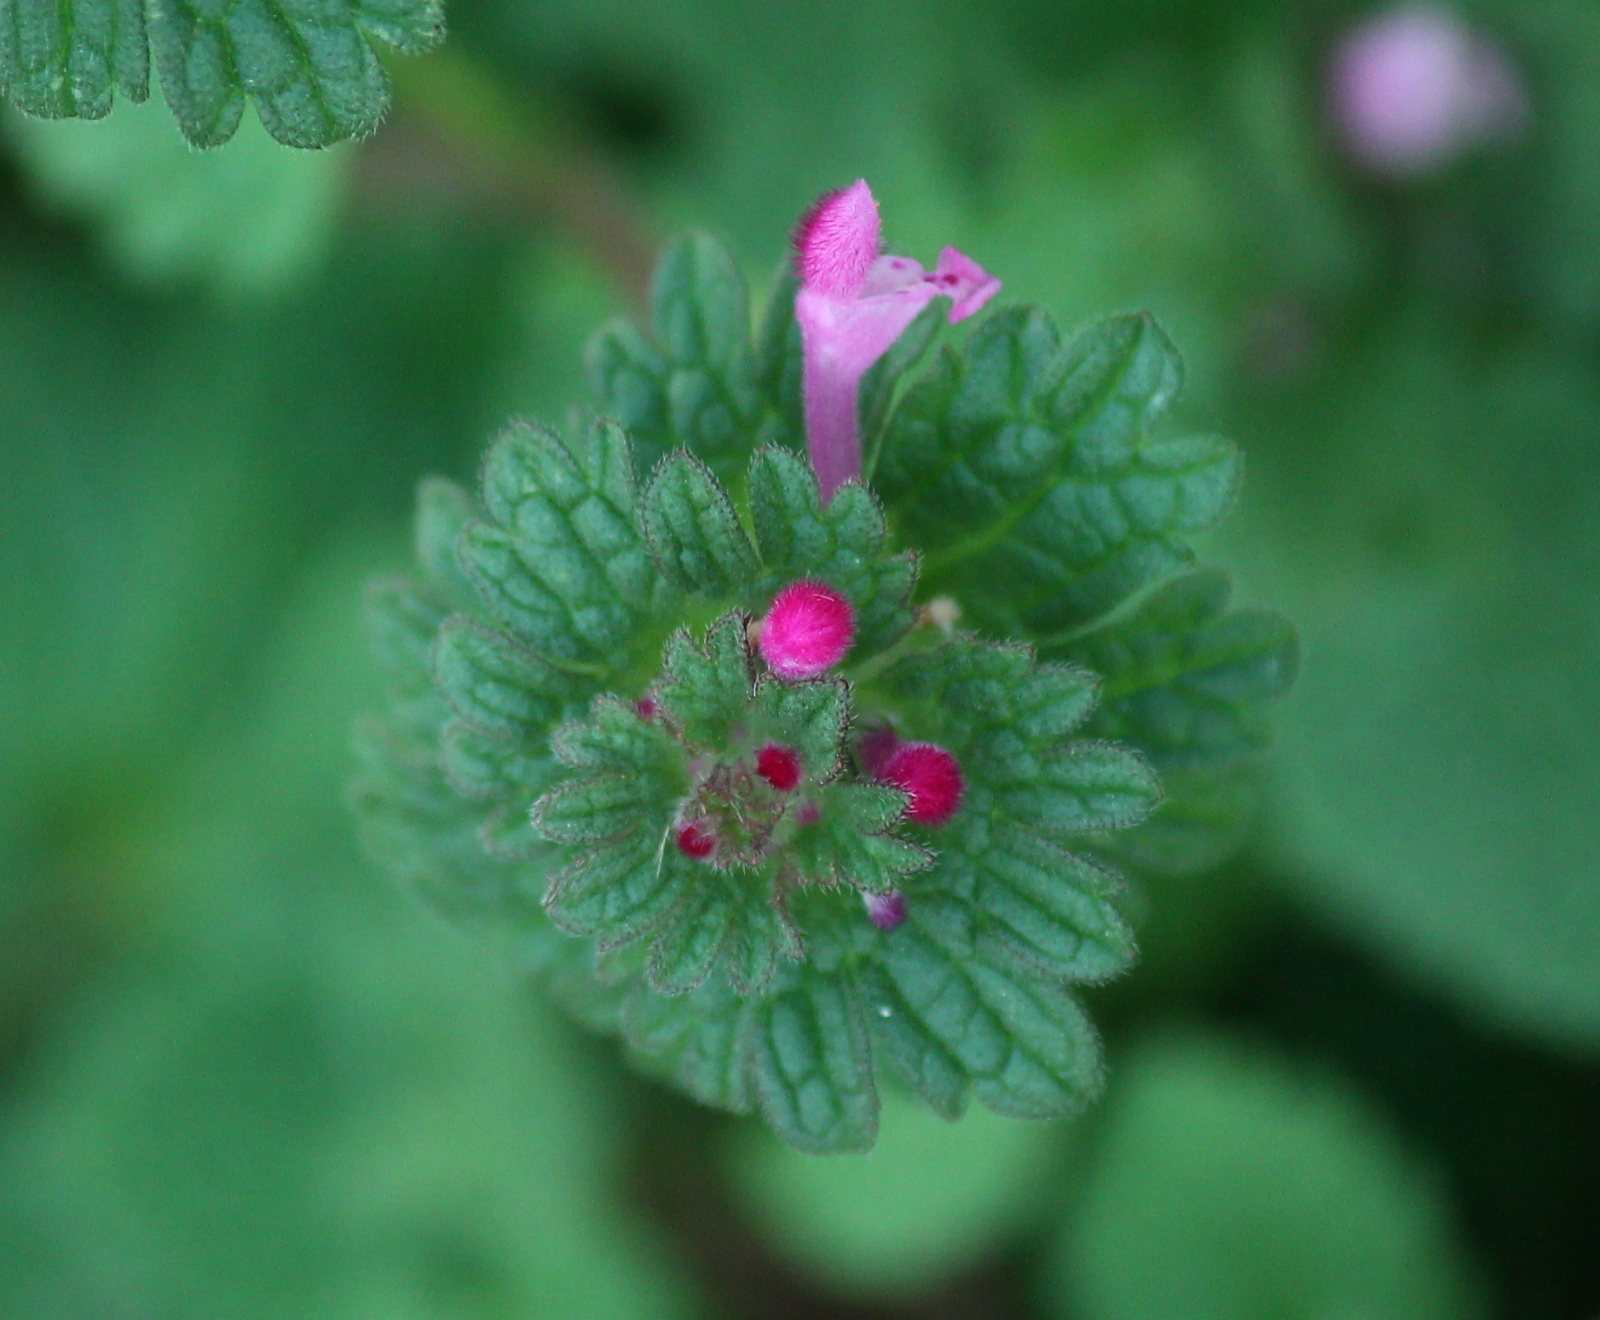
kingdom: Plantae
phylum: Tracheophyta
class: Magnoliopsida
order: Lamiales
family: Lamiaceae
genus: Lamium
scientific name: Lamium amplexicaule
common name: Henbit dead-nettle
